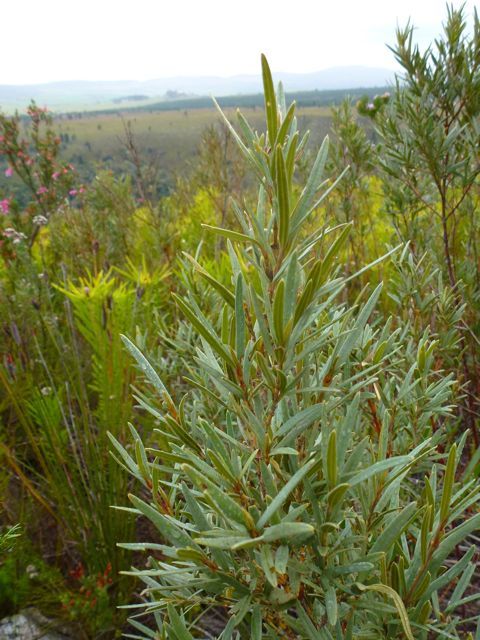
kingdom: Plantae
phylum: Tracheophyta
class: Magnoliopsida
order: Cornales
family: Grubbiaceae
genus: Grubbia
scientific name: Grubbia tomentosa
